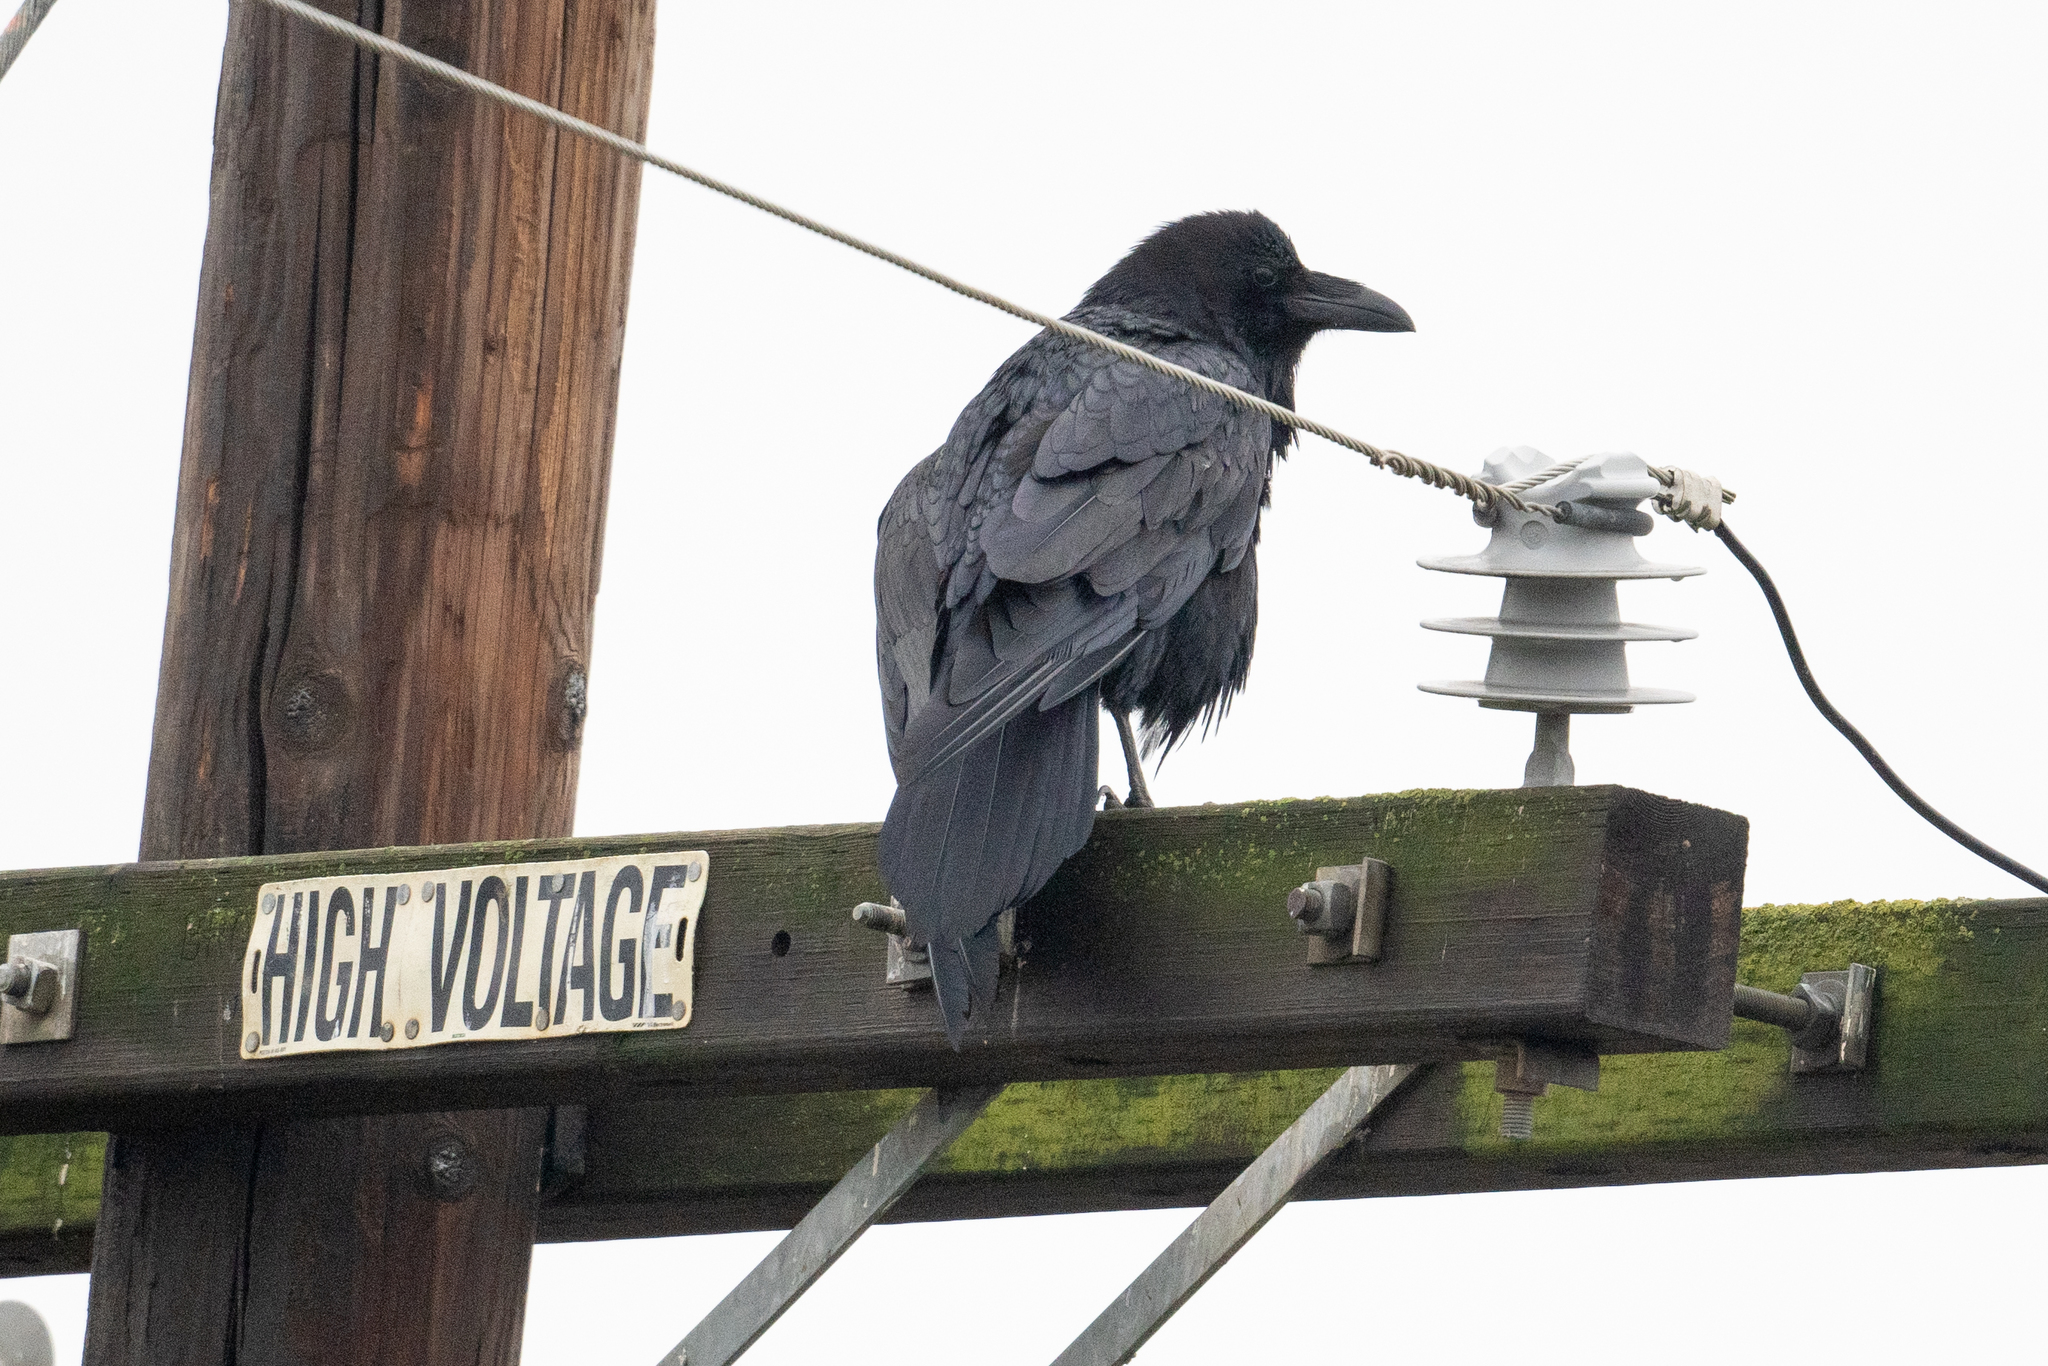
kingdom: Animalia
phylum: Chordata
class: Aves
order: Passeriformes
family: Corvidae
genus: Corvus
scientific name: Corvus corax
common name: Common raven
